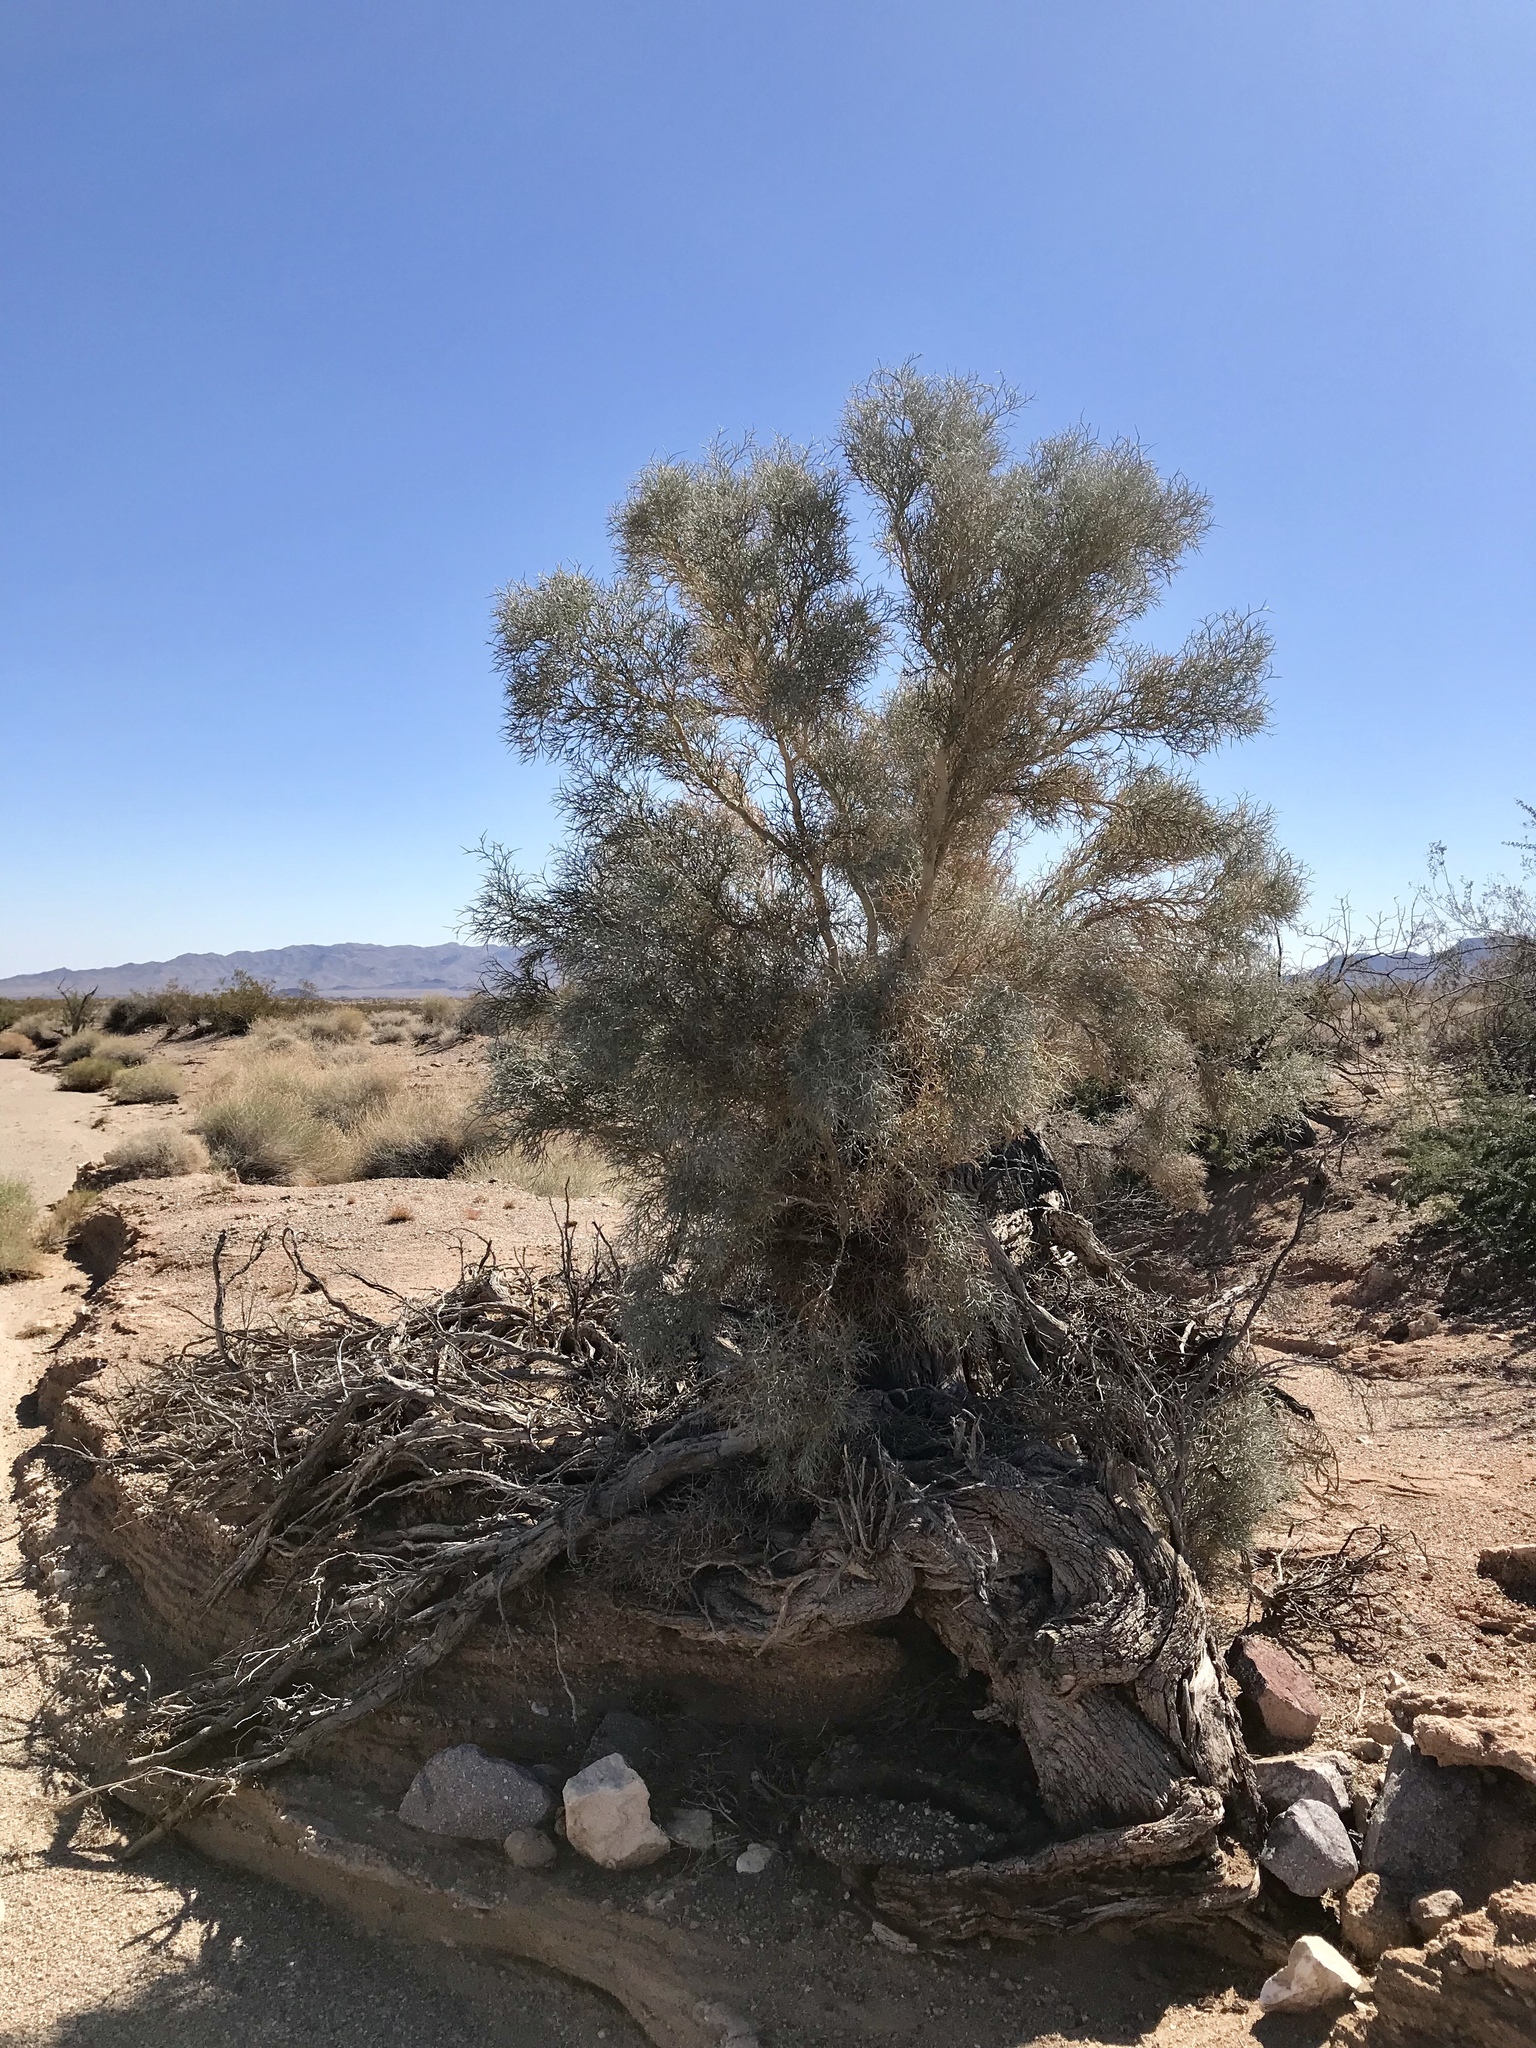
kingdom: Plantae
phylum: Tracheophyta
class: Magnoliopsida
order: Fabales
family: Fabaceae
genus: Psorothamnus
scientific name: Psorothamnus spinosus
